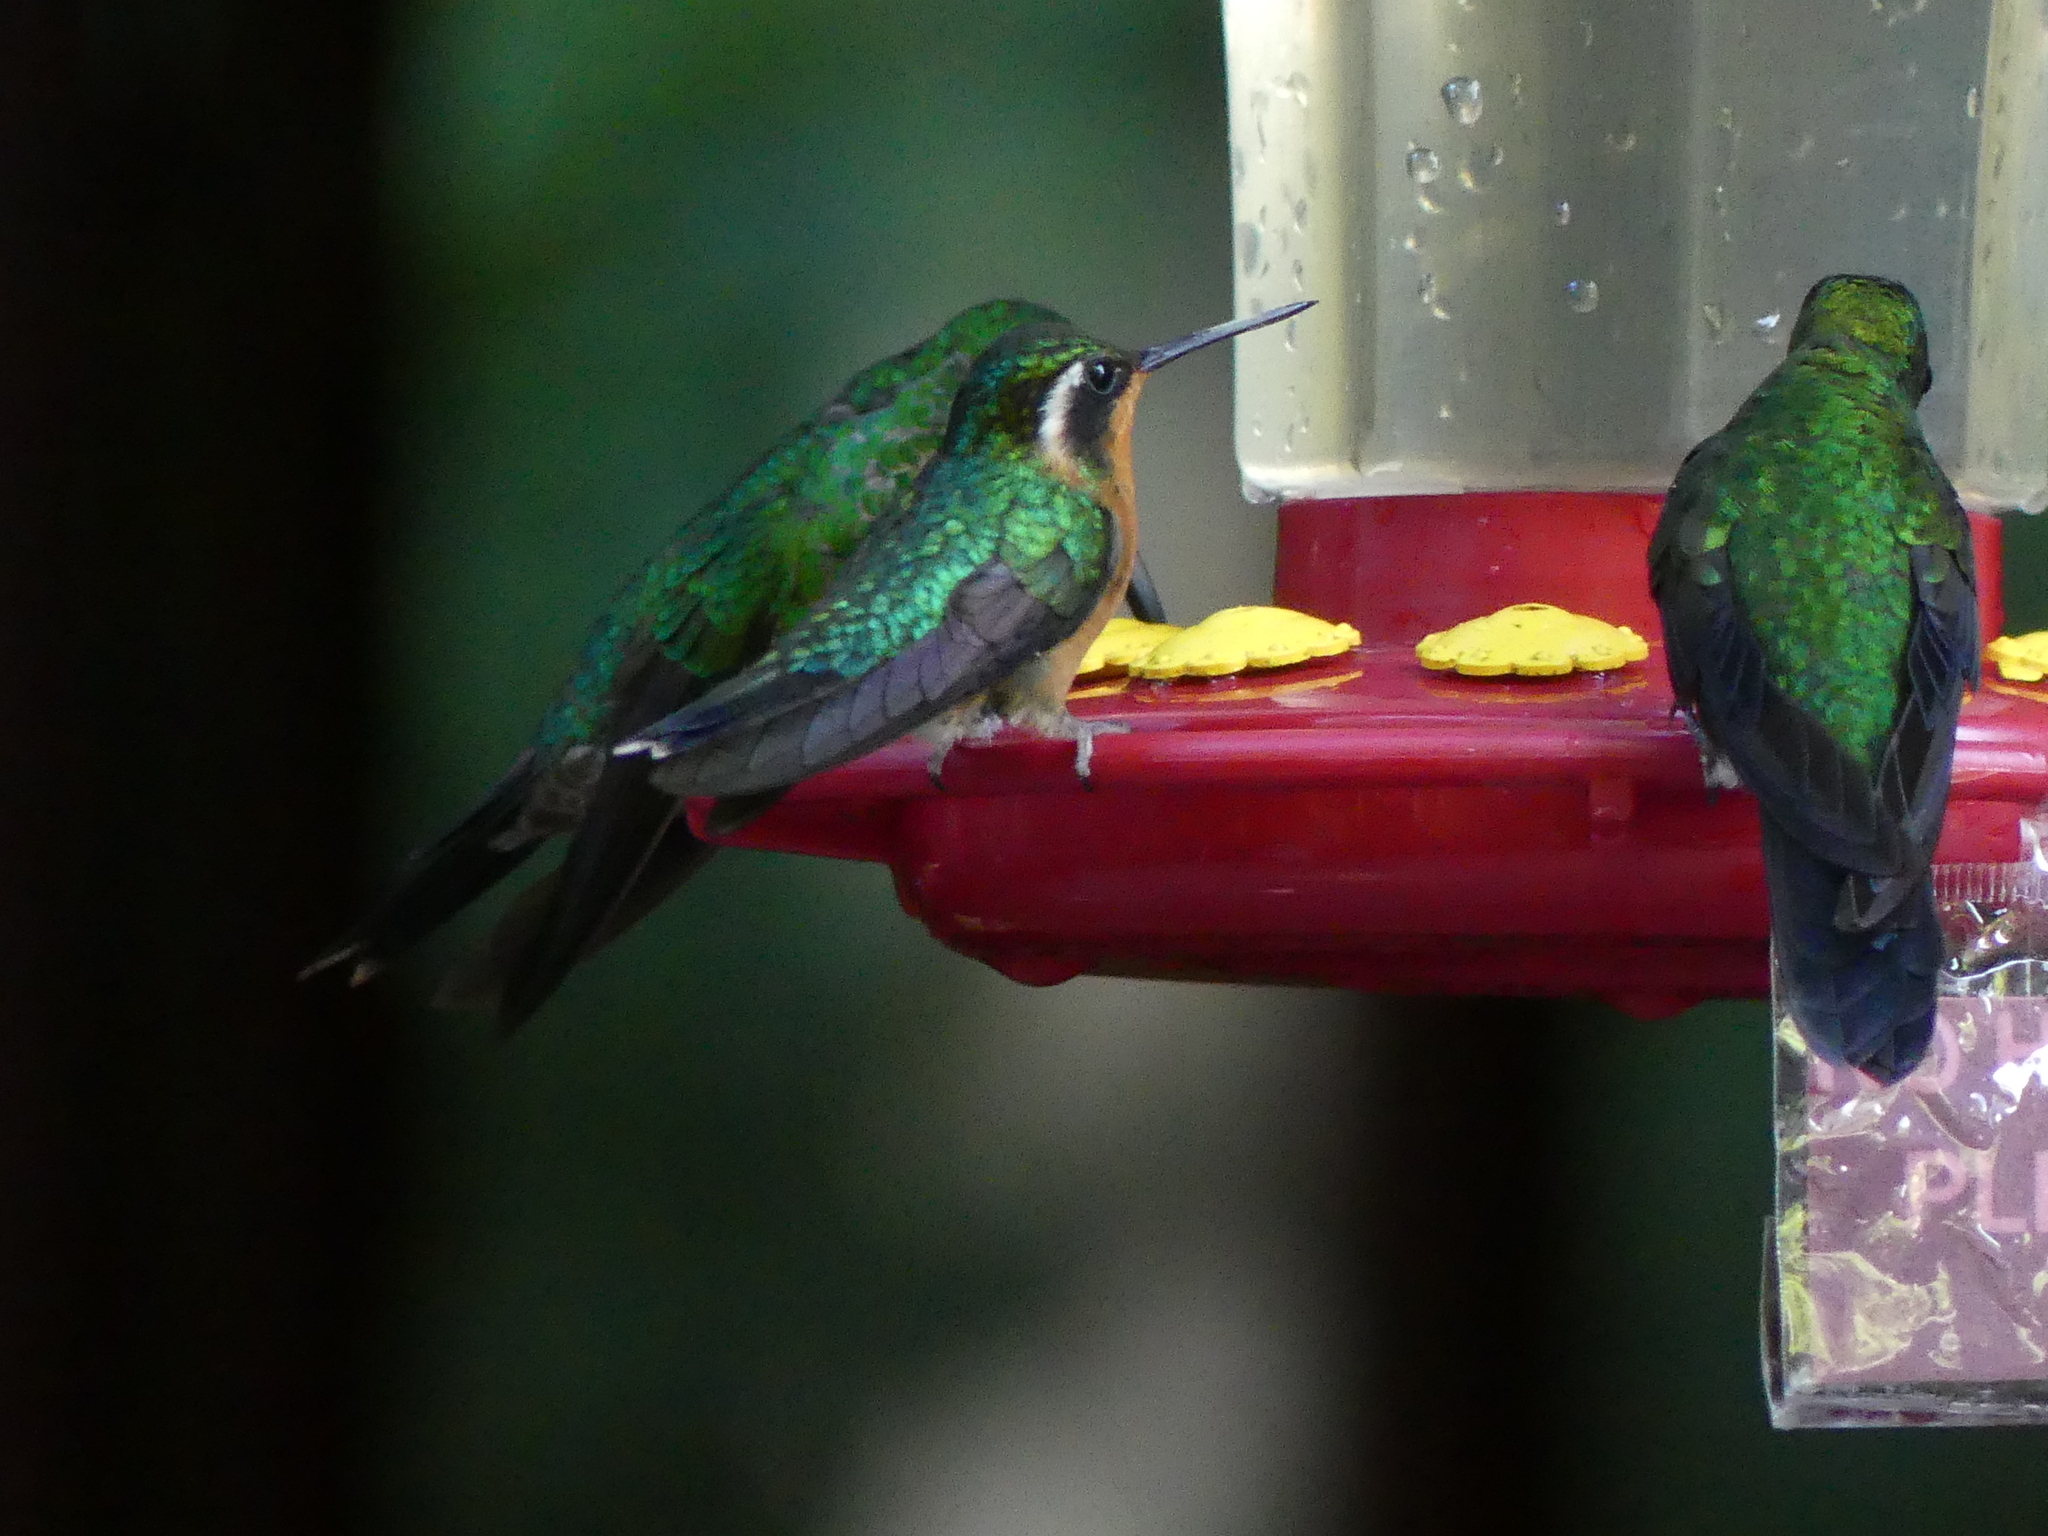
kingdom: Animalia
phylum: Chordata
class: Aves
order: Apodiformes
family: Trochilidae
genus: Lampornis
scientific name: Lampornis calolaemus
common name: Purple-throated mountain-gem
